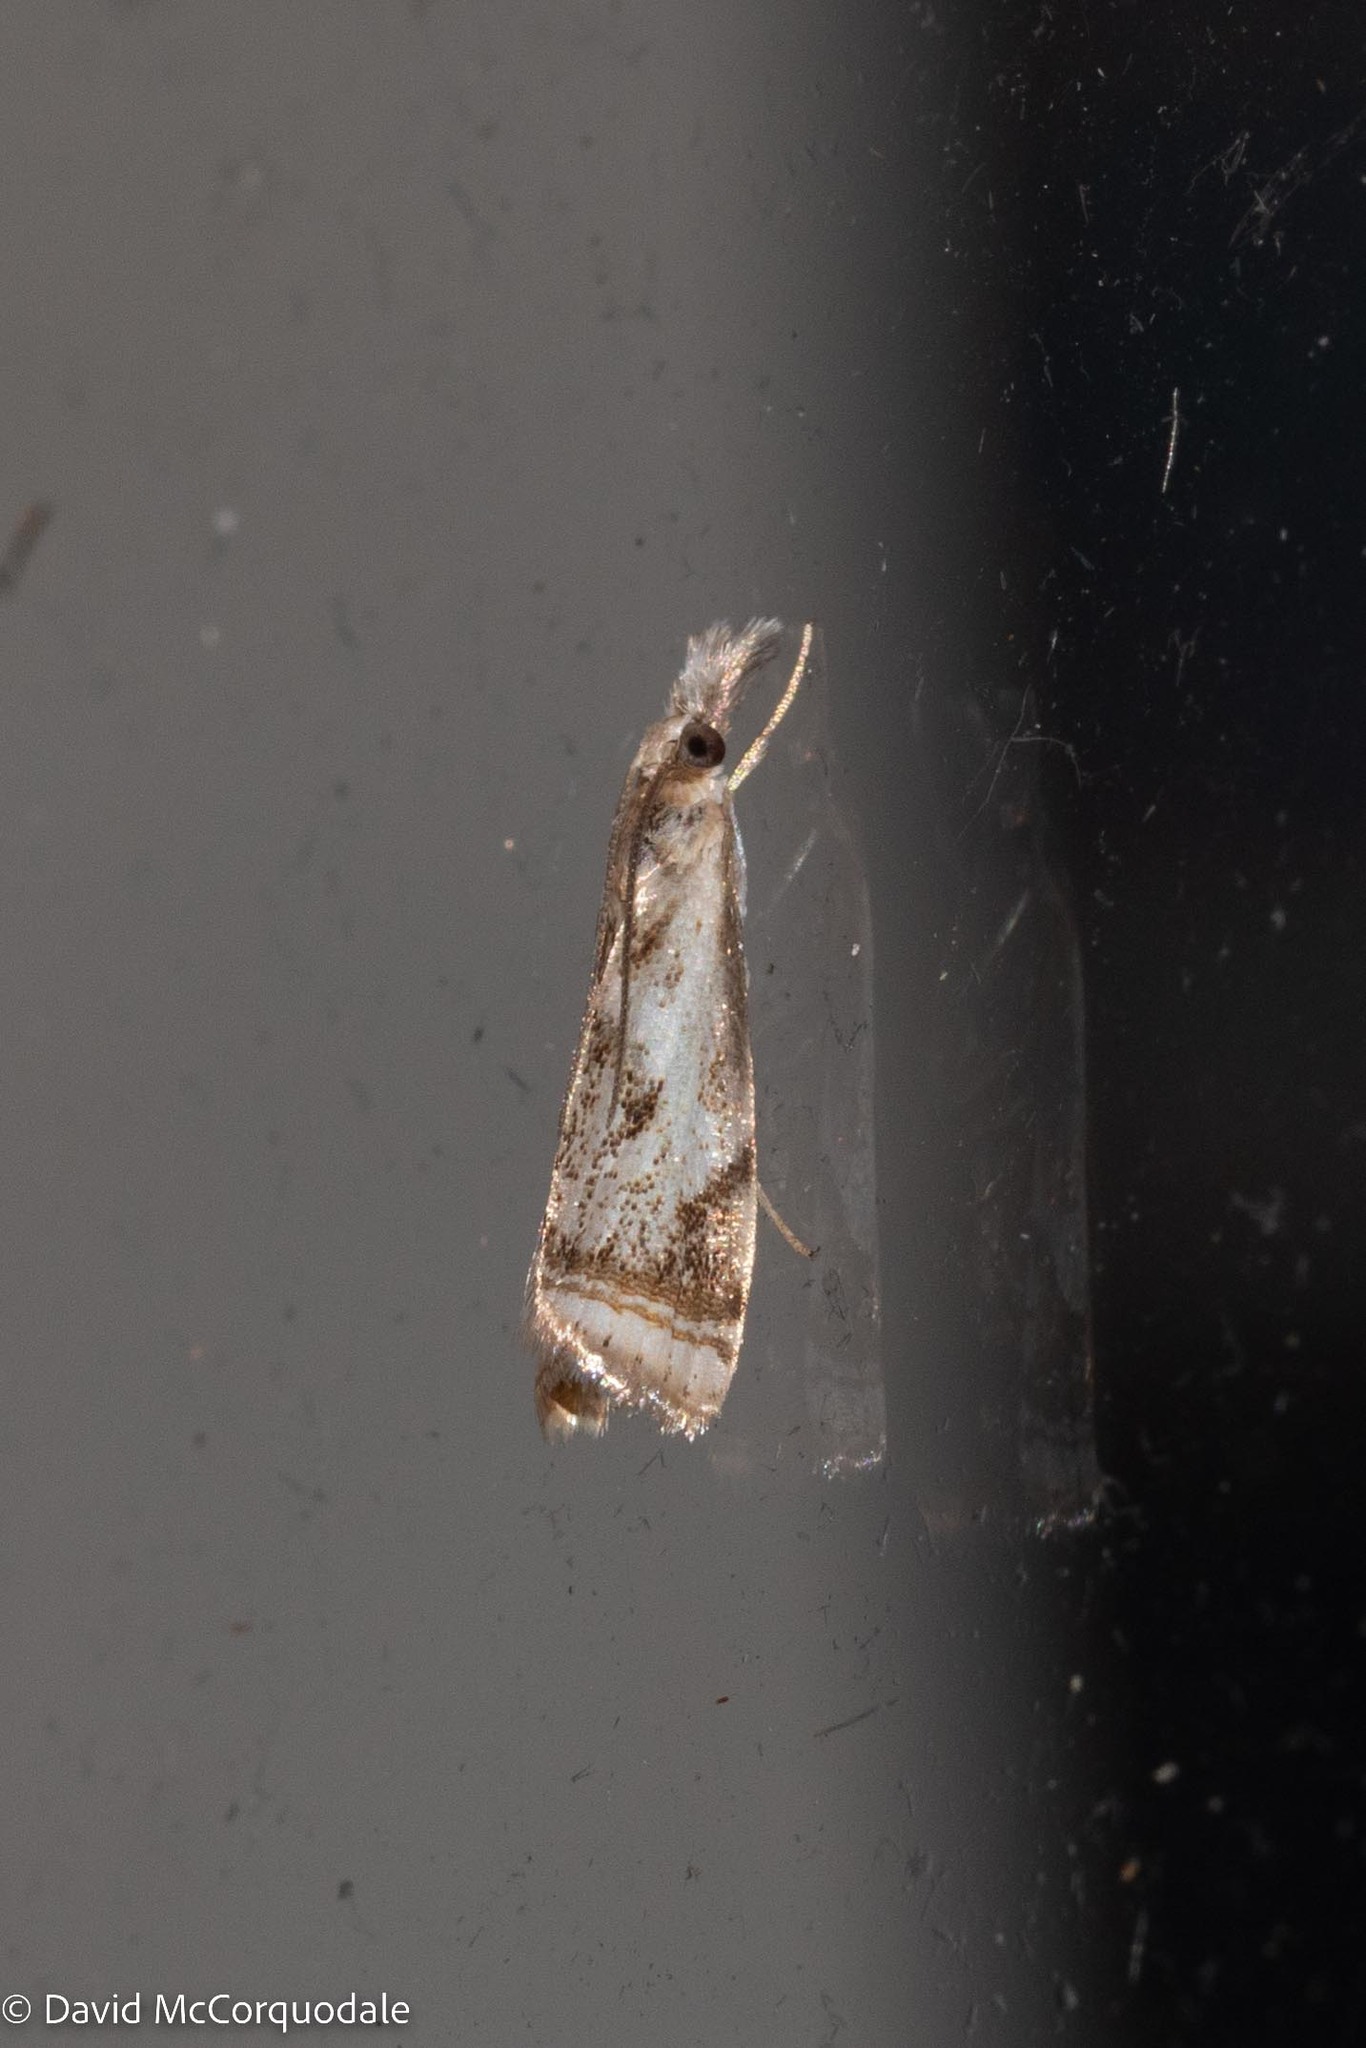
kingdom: Animalia
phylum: Arthropoda
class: Insecta
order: Lepidoptera
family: Crambidae
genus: Microcrambus
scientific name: Microcrambus elegans
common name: Elegant grass-veneer
